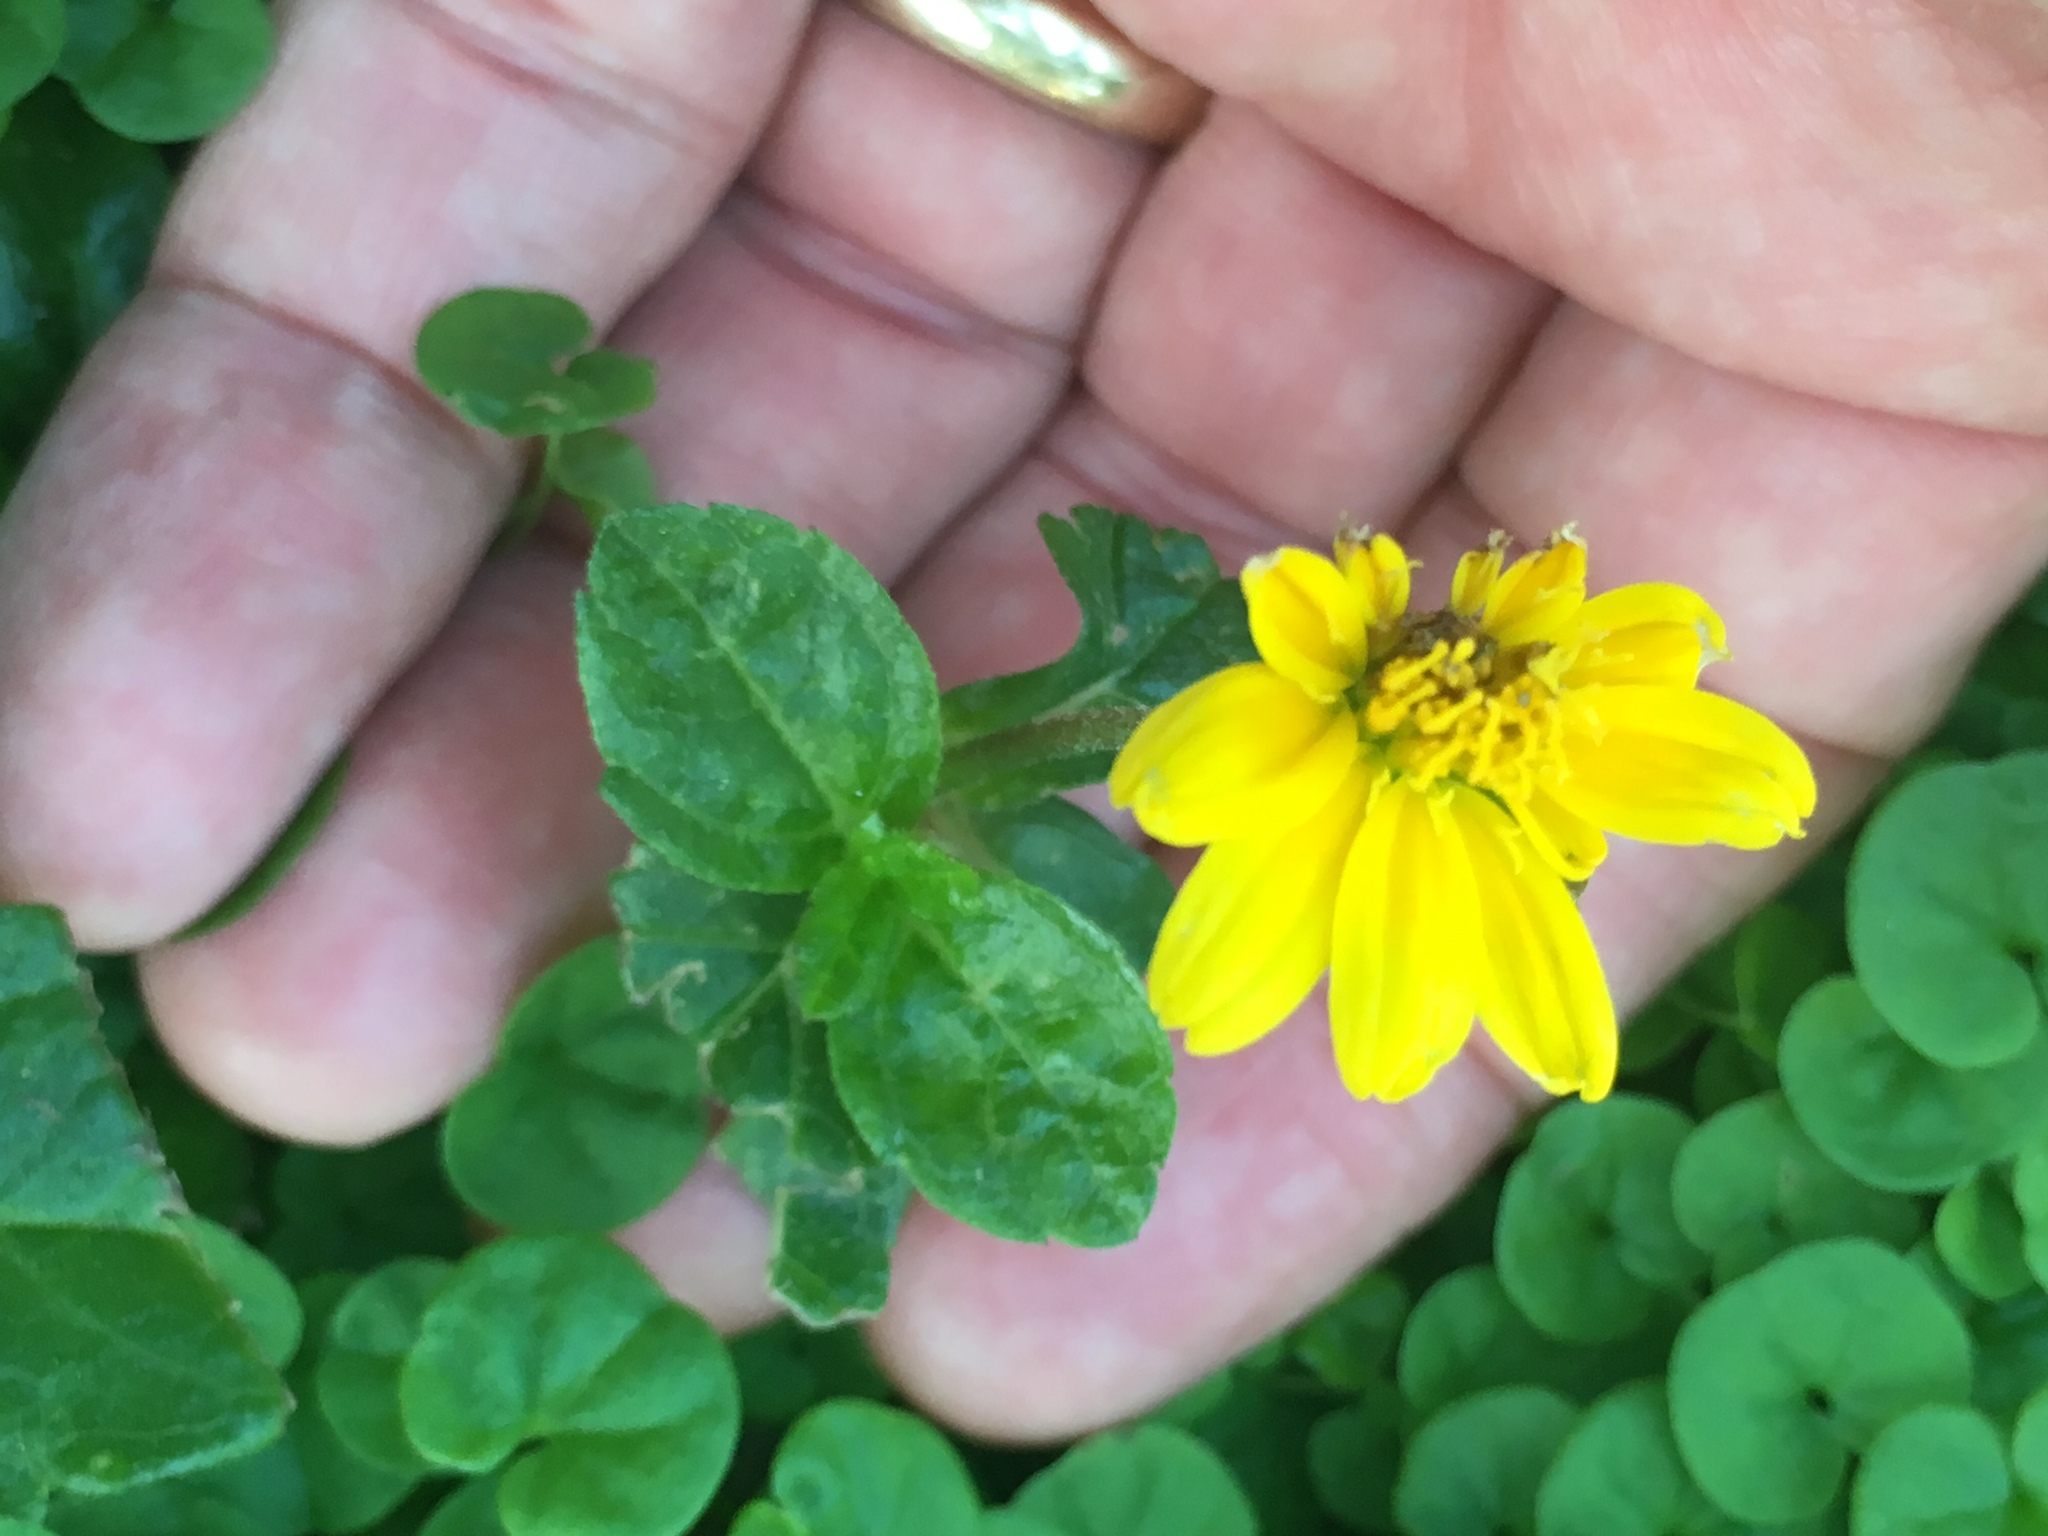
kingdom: Plantae
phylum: Tracheophyta
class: Magnoliopsida
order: Asterales
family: Asteraceae
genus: Sphagneticola
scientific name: Sphagneticola trilobata
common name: Bay biscayne creeping-oxeye
